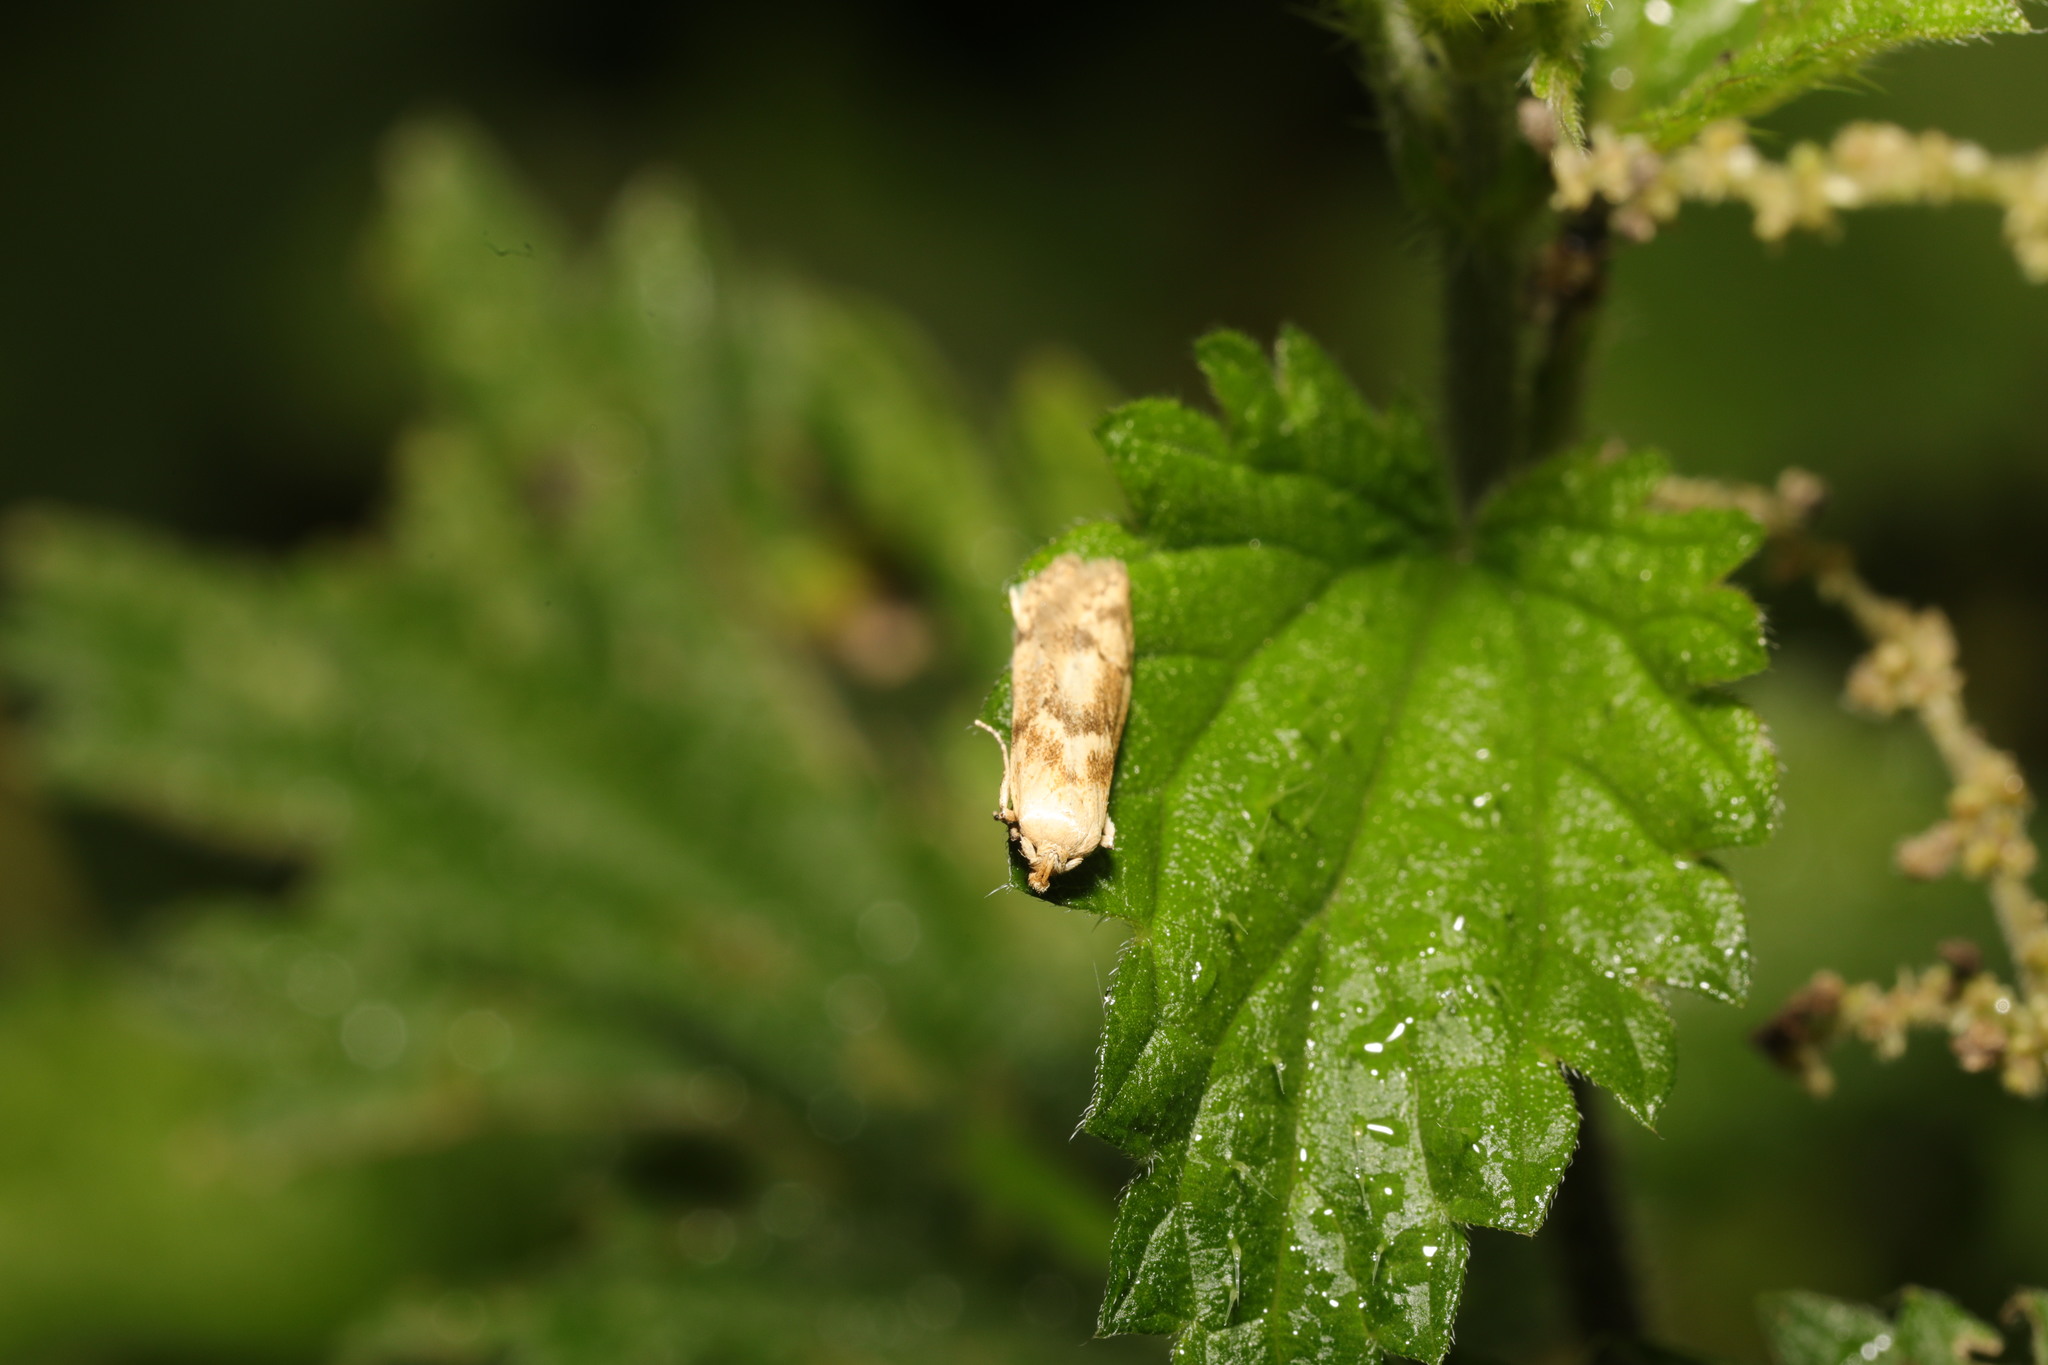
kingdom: Animalia
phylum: Arthropoda
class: Insecta
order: Lepidoptera
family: Blastobasidae
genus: Blastobasis
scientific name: Blastobasis lacticolella
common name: London dowd
